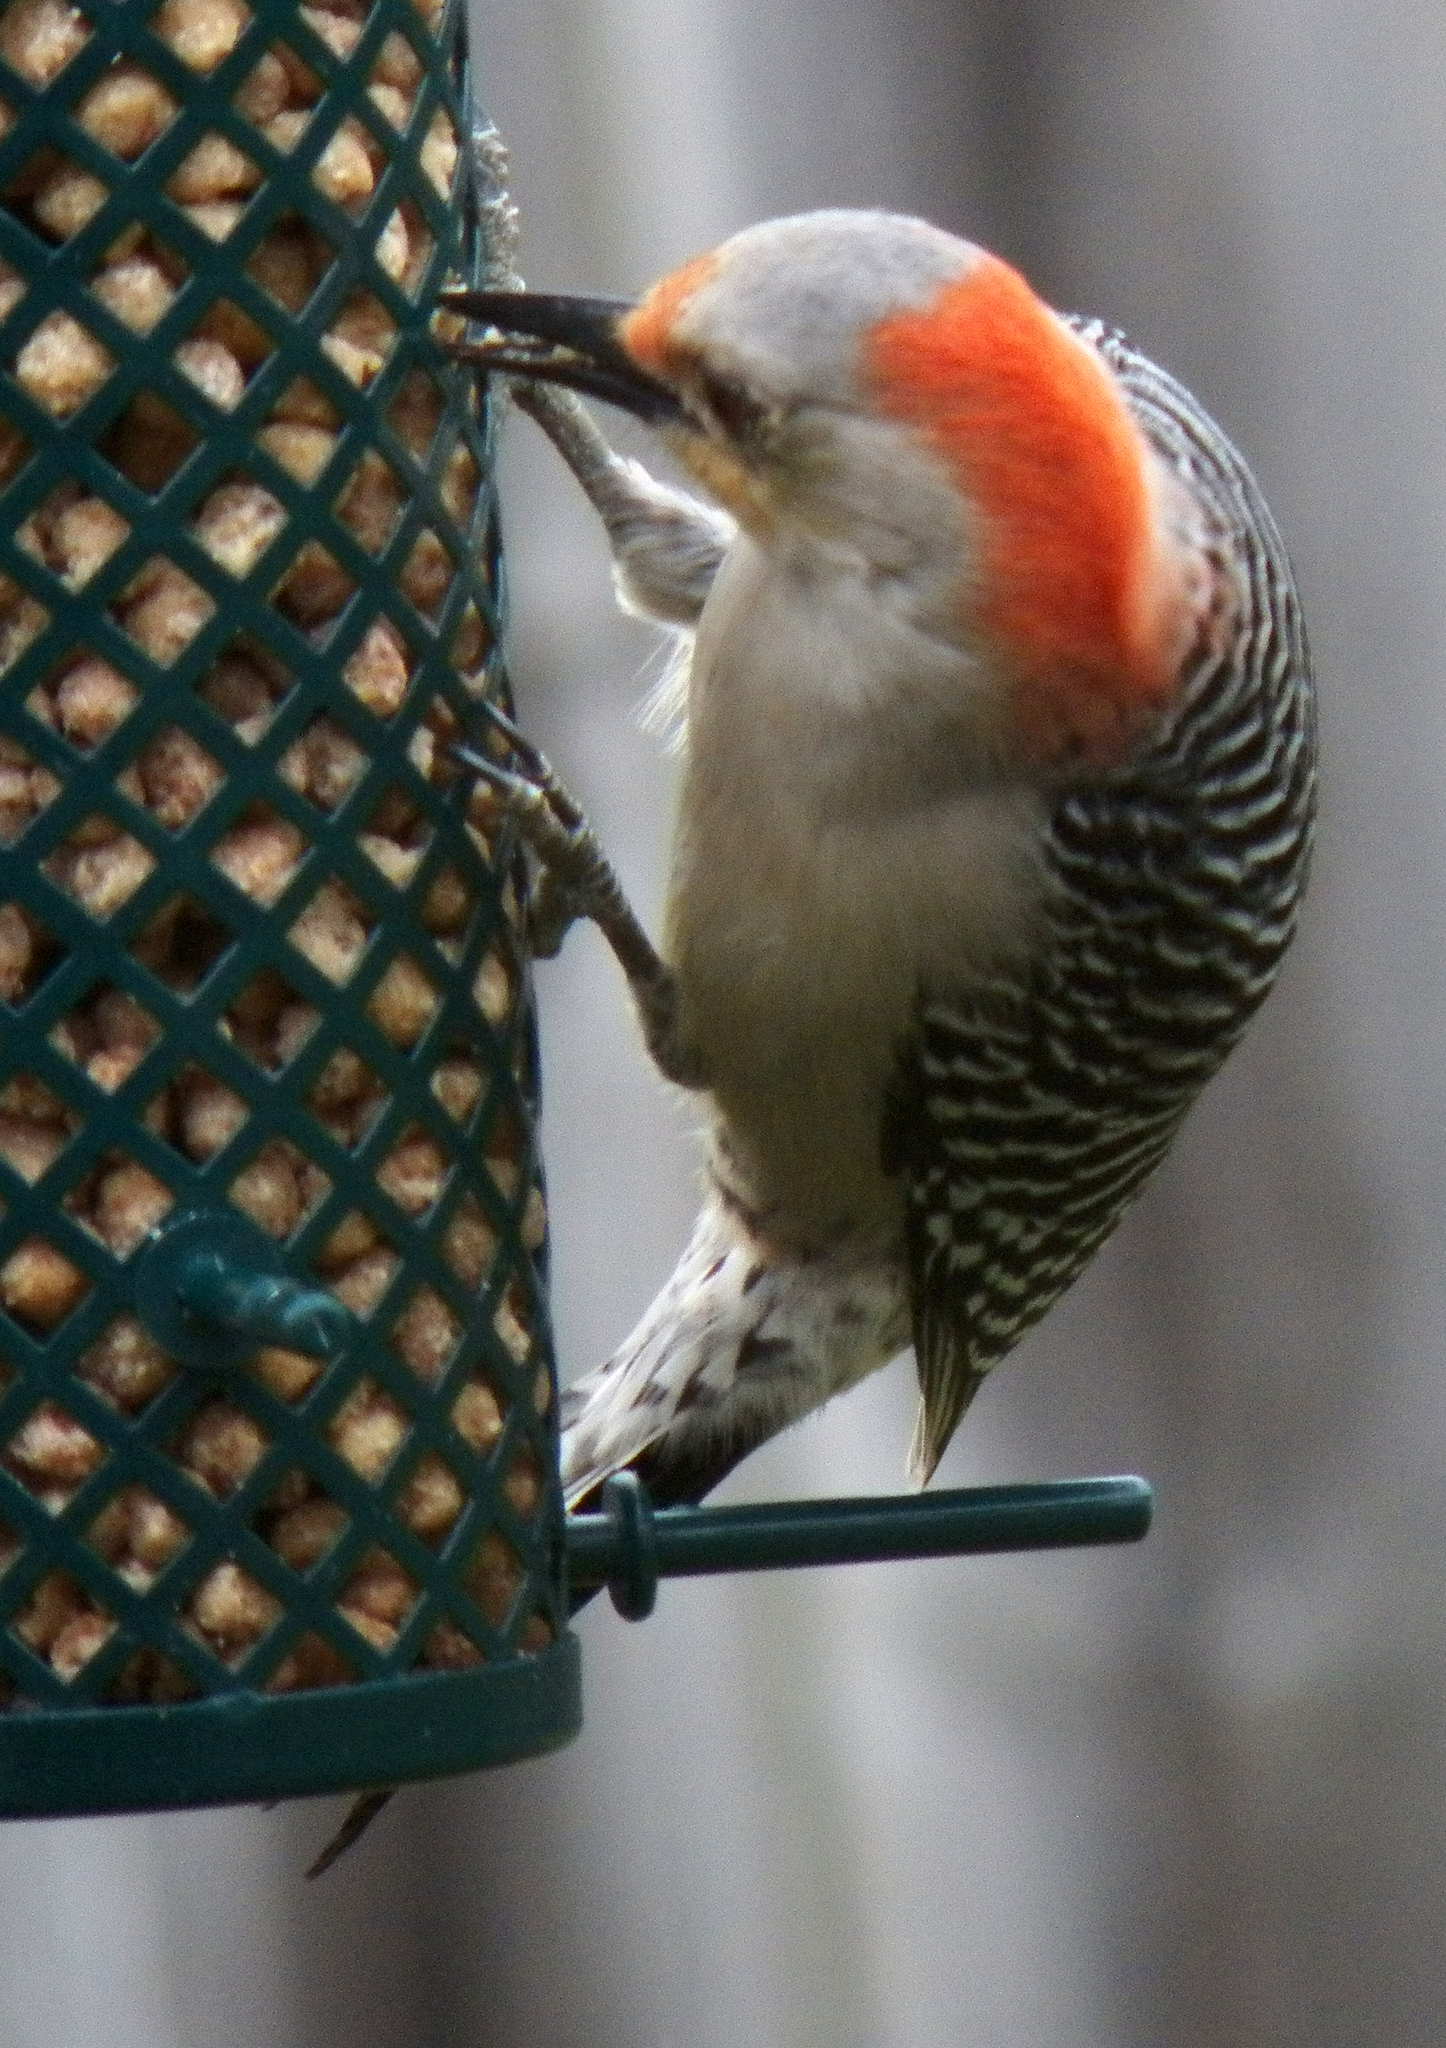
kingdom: Animalia
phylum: Chordata
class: Aves
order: Piciformes
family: Picidae
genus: Melanerpes
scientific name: Melanerpes carolinus
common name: Red-bellied woodpecker
